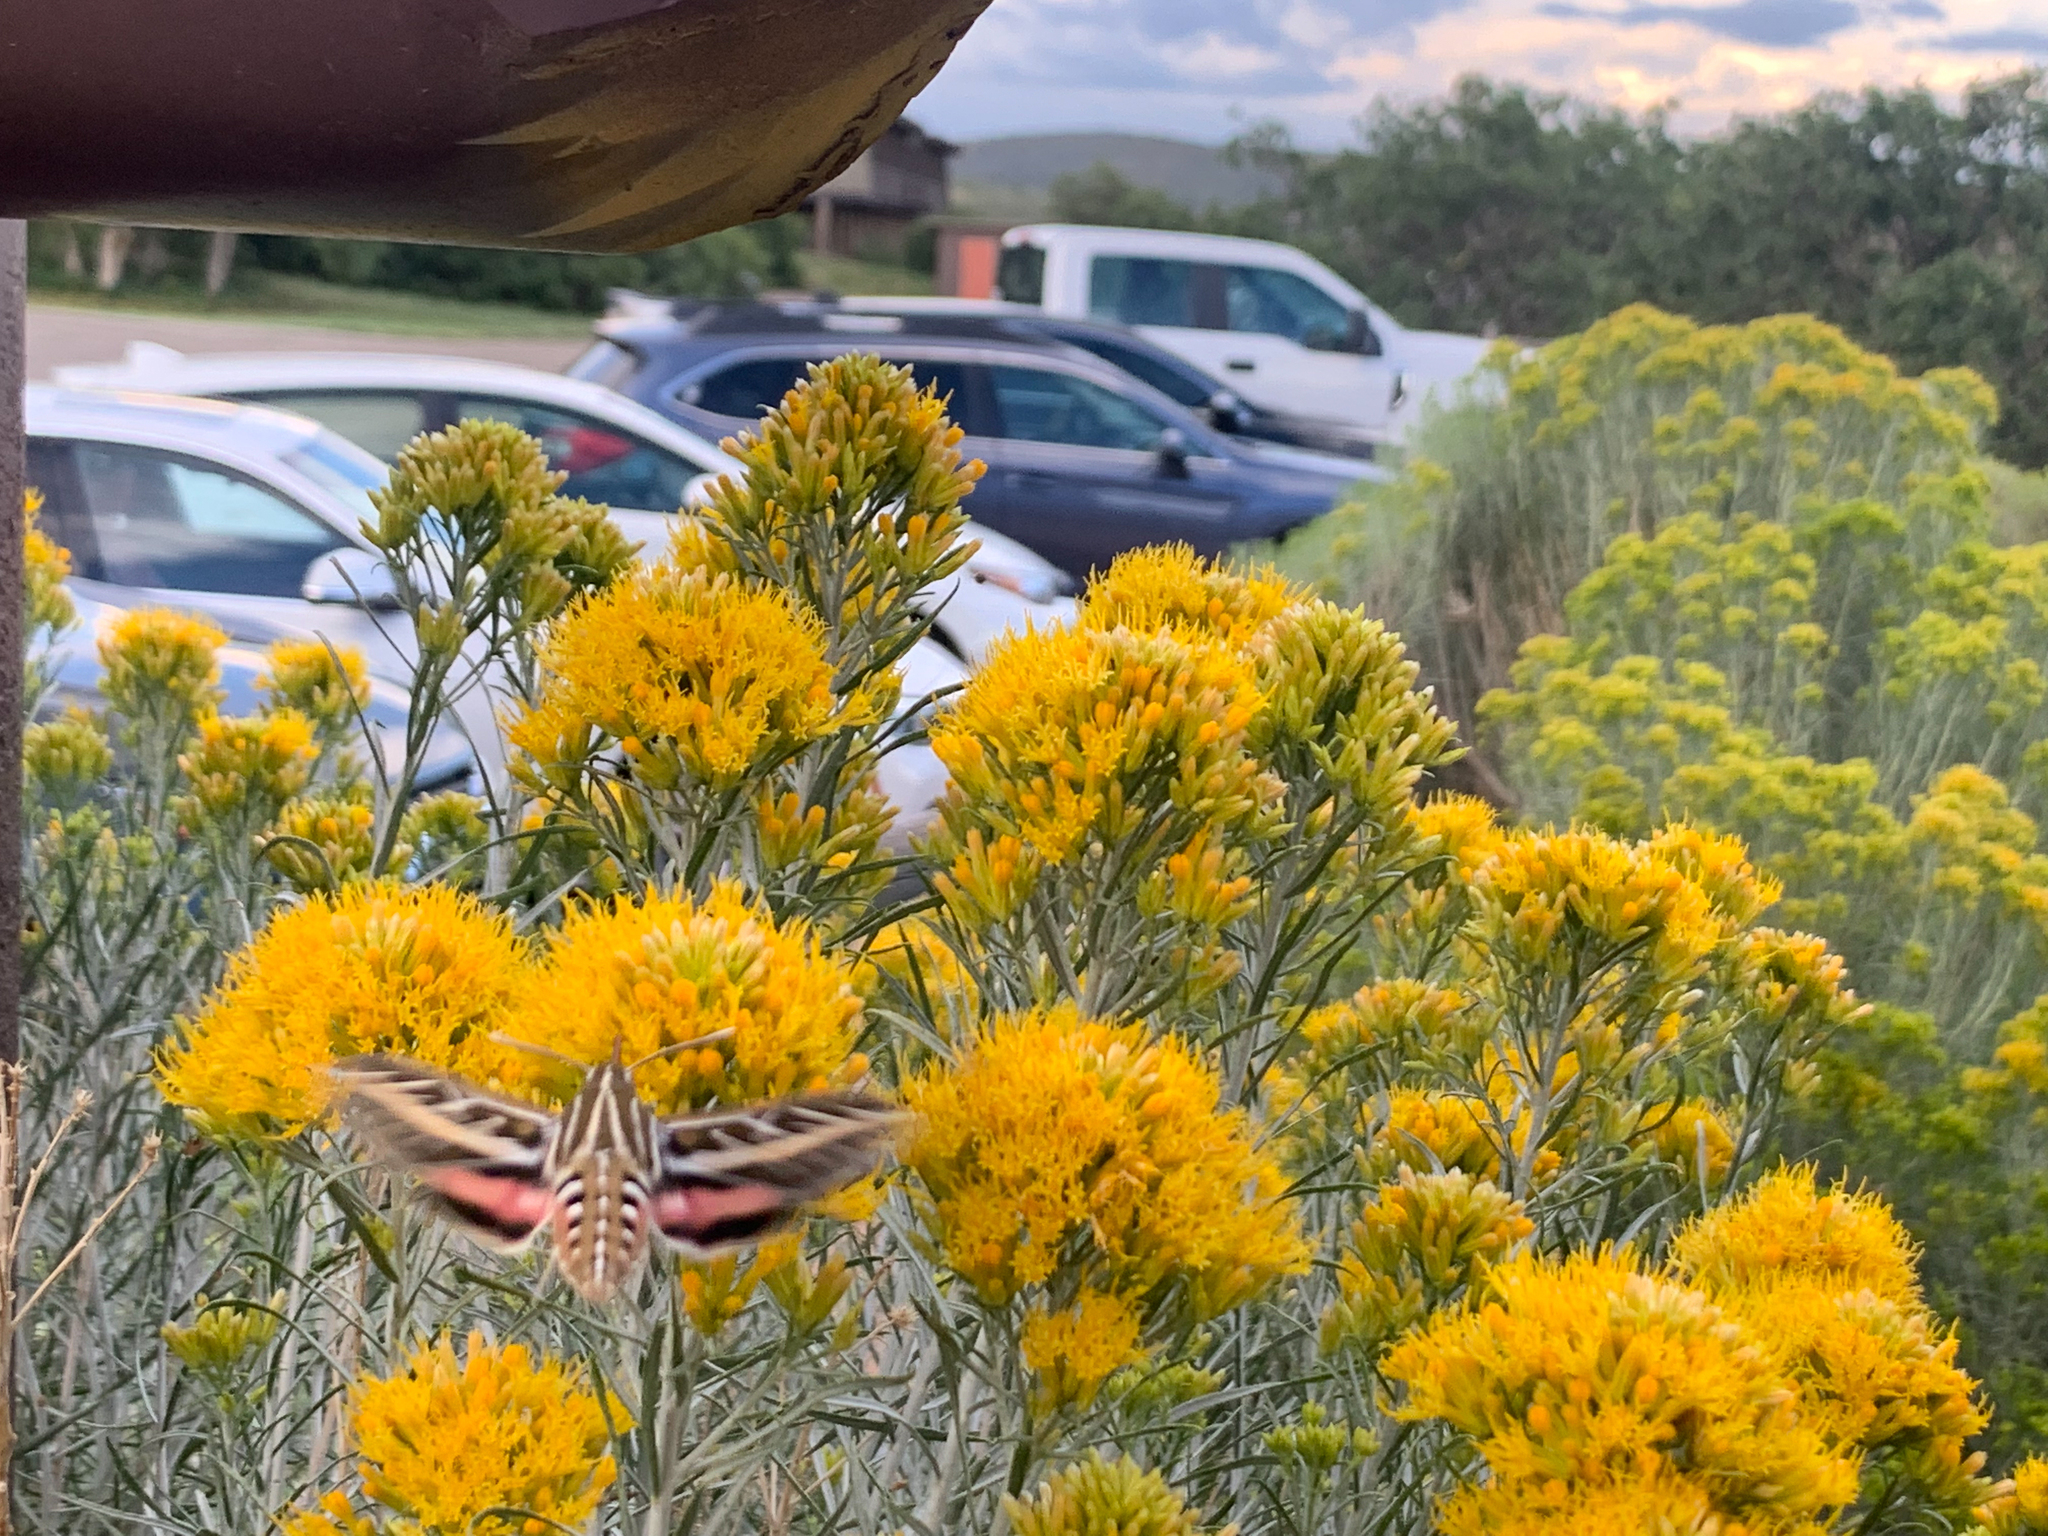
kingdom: Animalia
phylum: Arthropoda
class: Insecta
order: Lepidoptera
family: Sphingidae
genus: Hyles
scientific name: Hyles lineata
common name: White-lined sphinx
